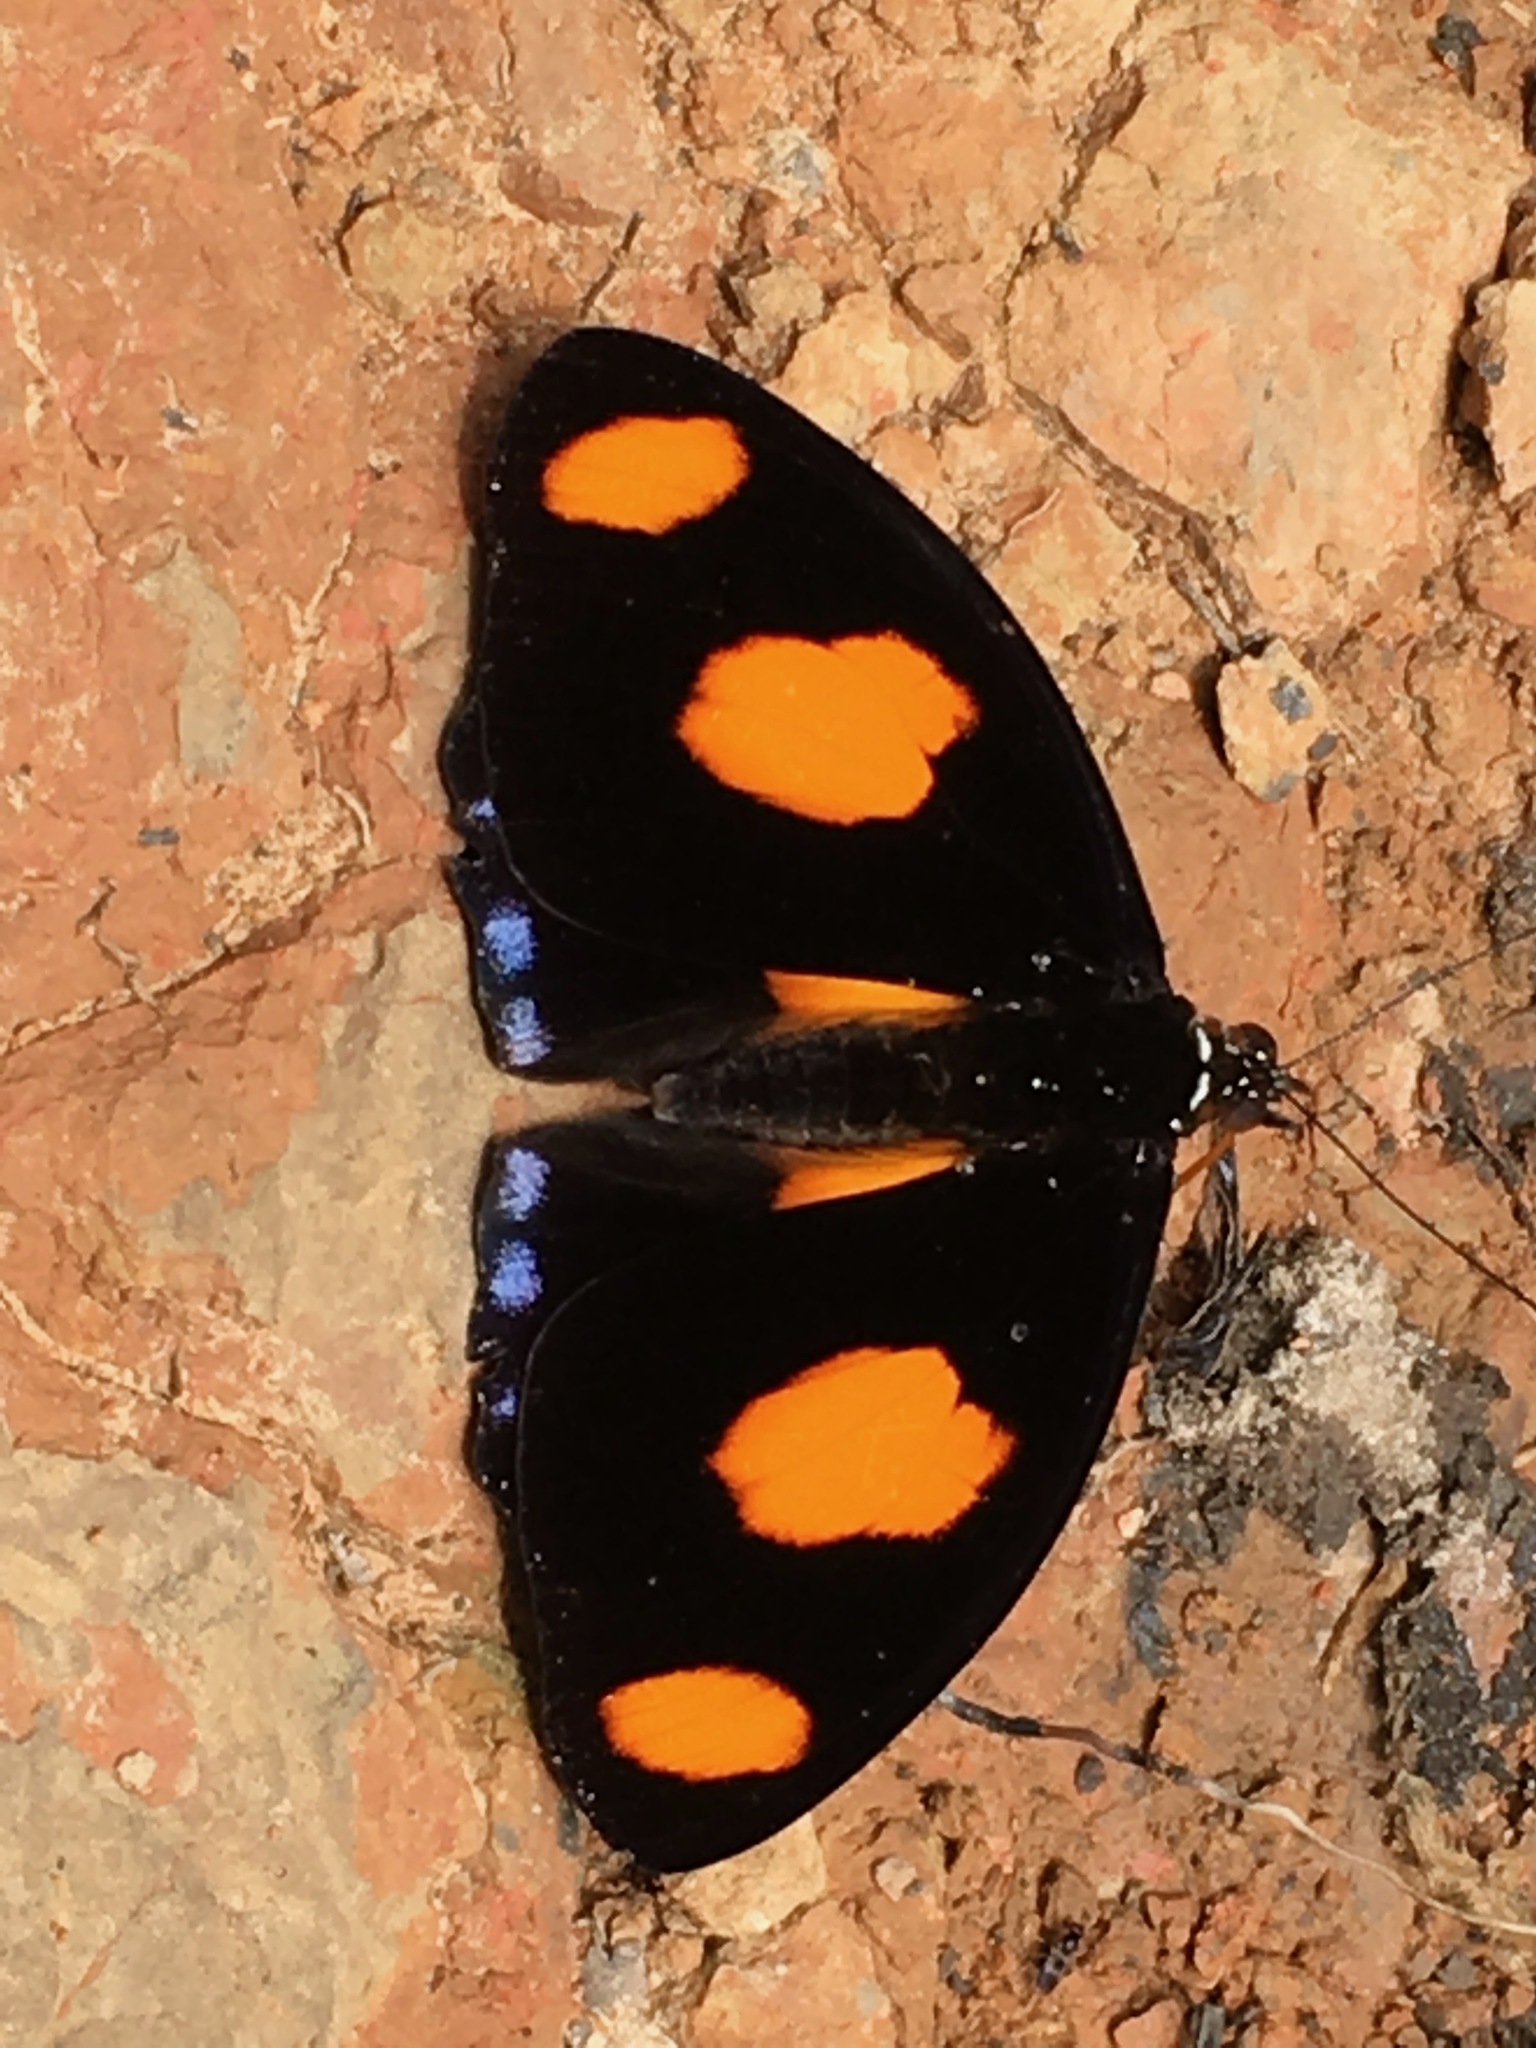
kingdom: Animalia
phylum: Arthropoda
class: Insecta
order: Lepidoptera
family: Nymphalidae
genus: Catonephele
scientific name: Catonephele numilia
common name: Blue-frosted banner
